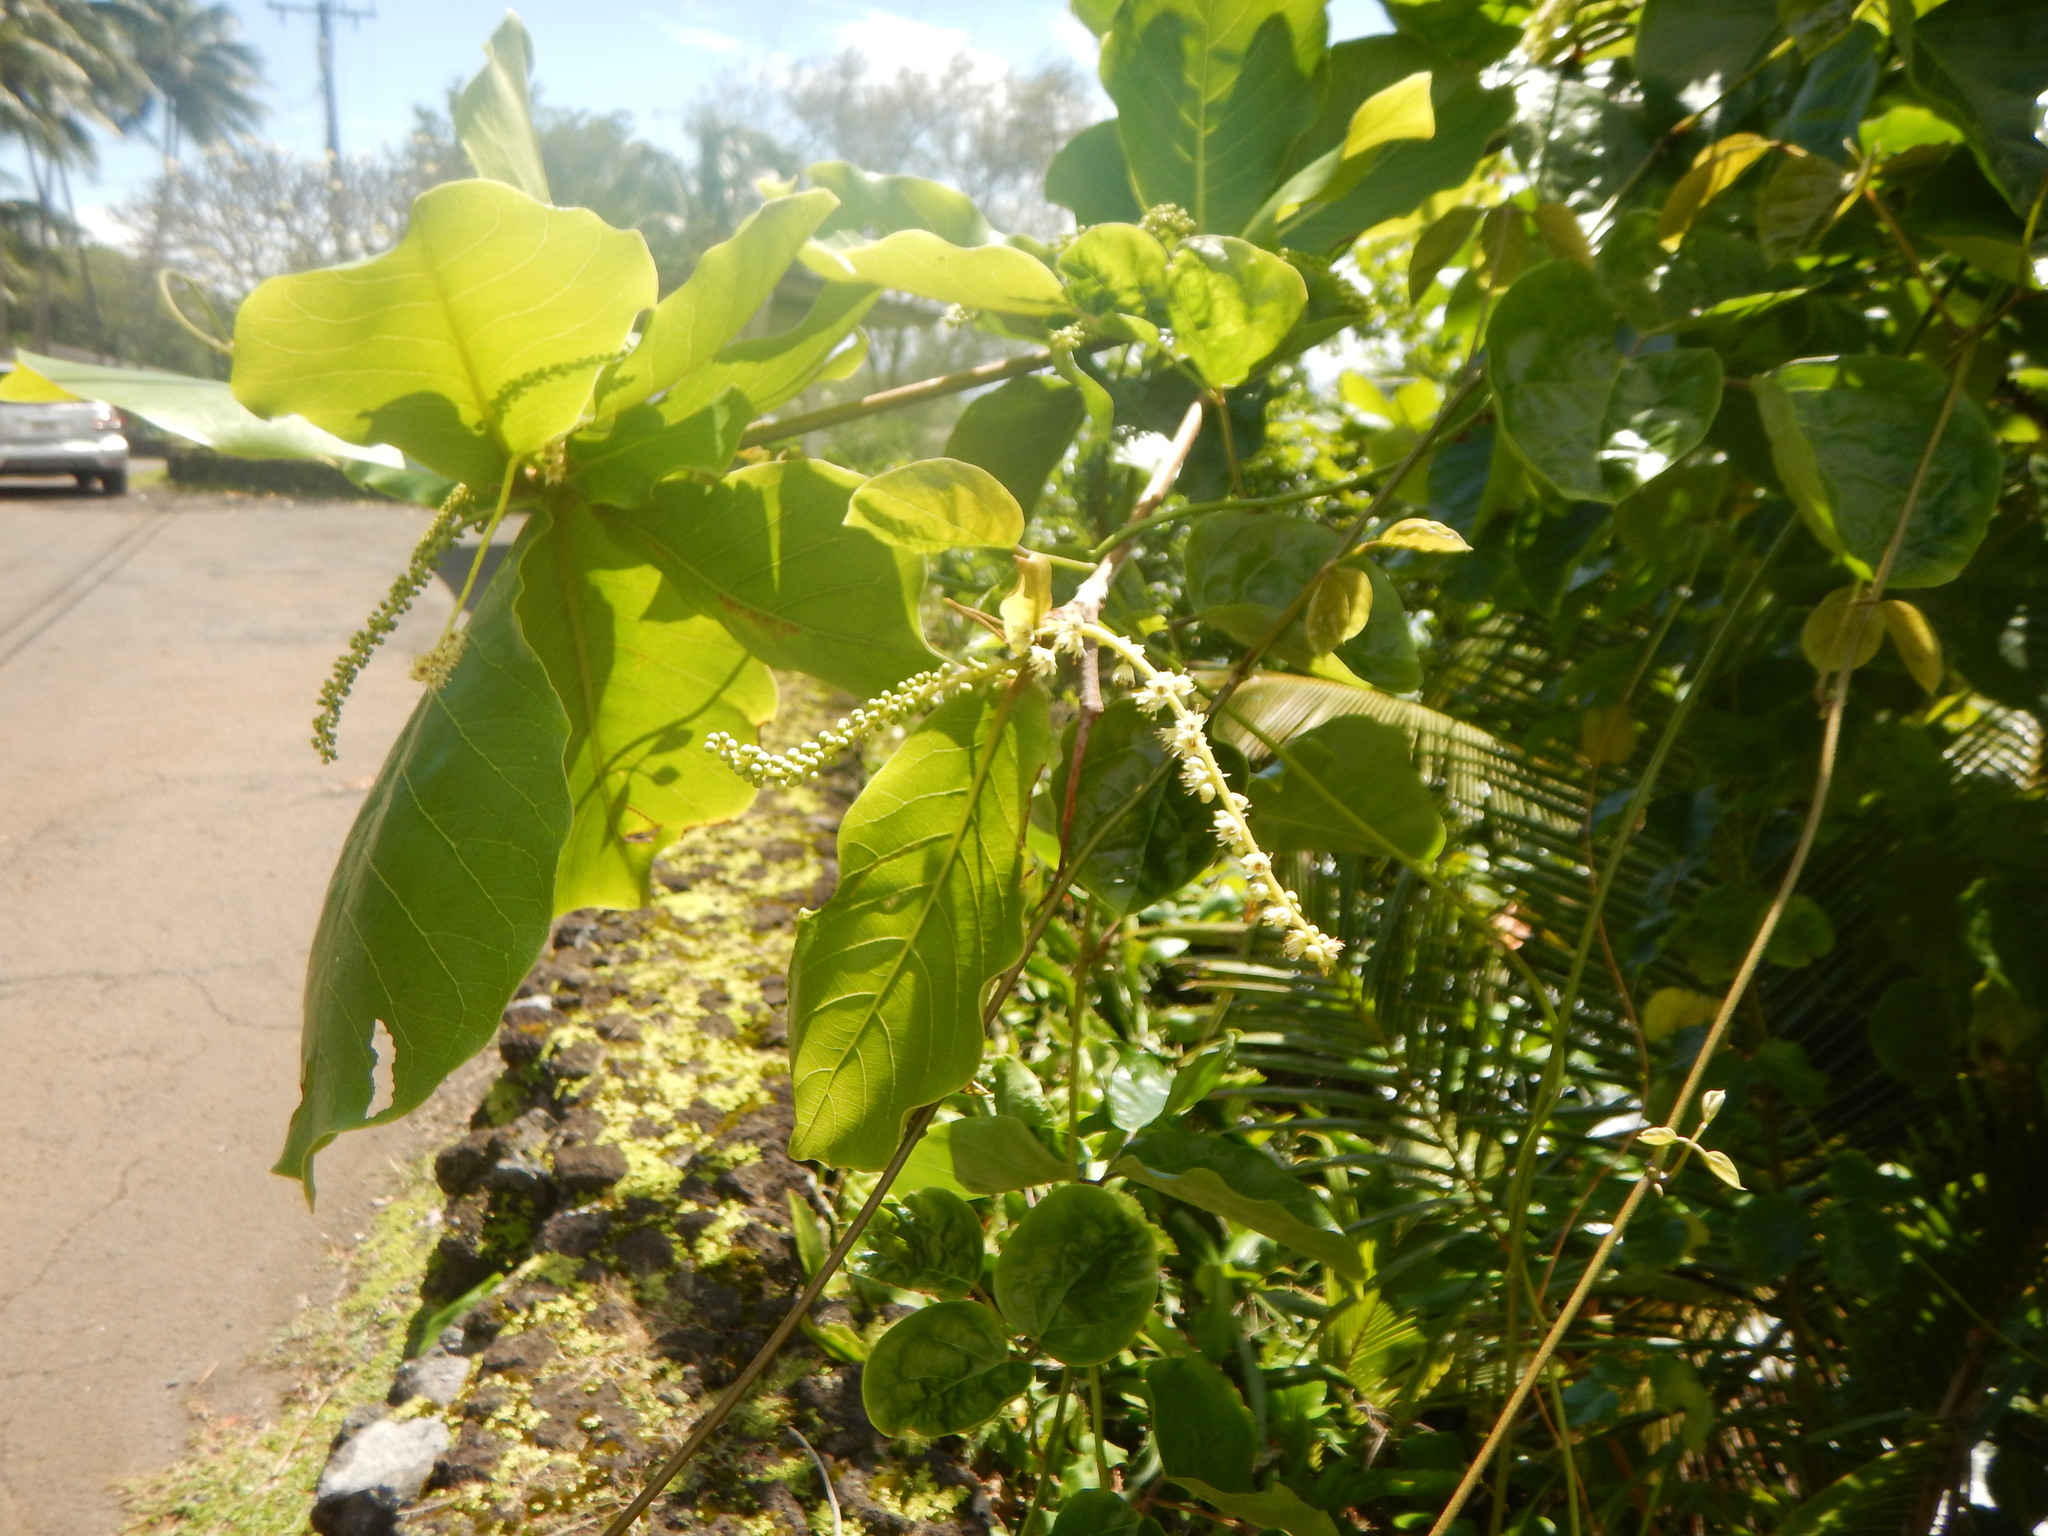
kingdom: Plantae
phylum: Tracheophyta
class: Magnoliopsida
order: Myrtales
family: Combretaceae
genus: Terminalia
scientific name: Terminalia catappa
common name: Tropical almond
